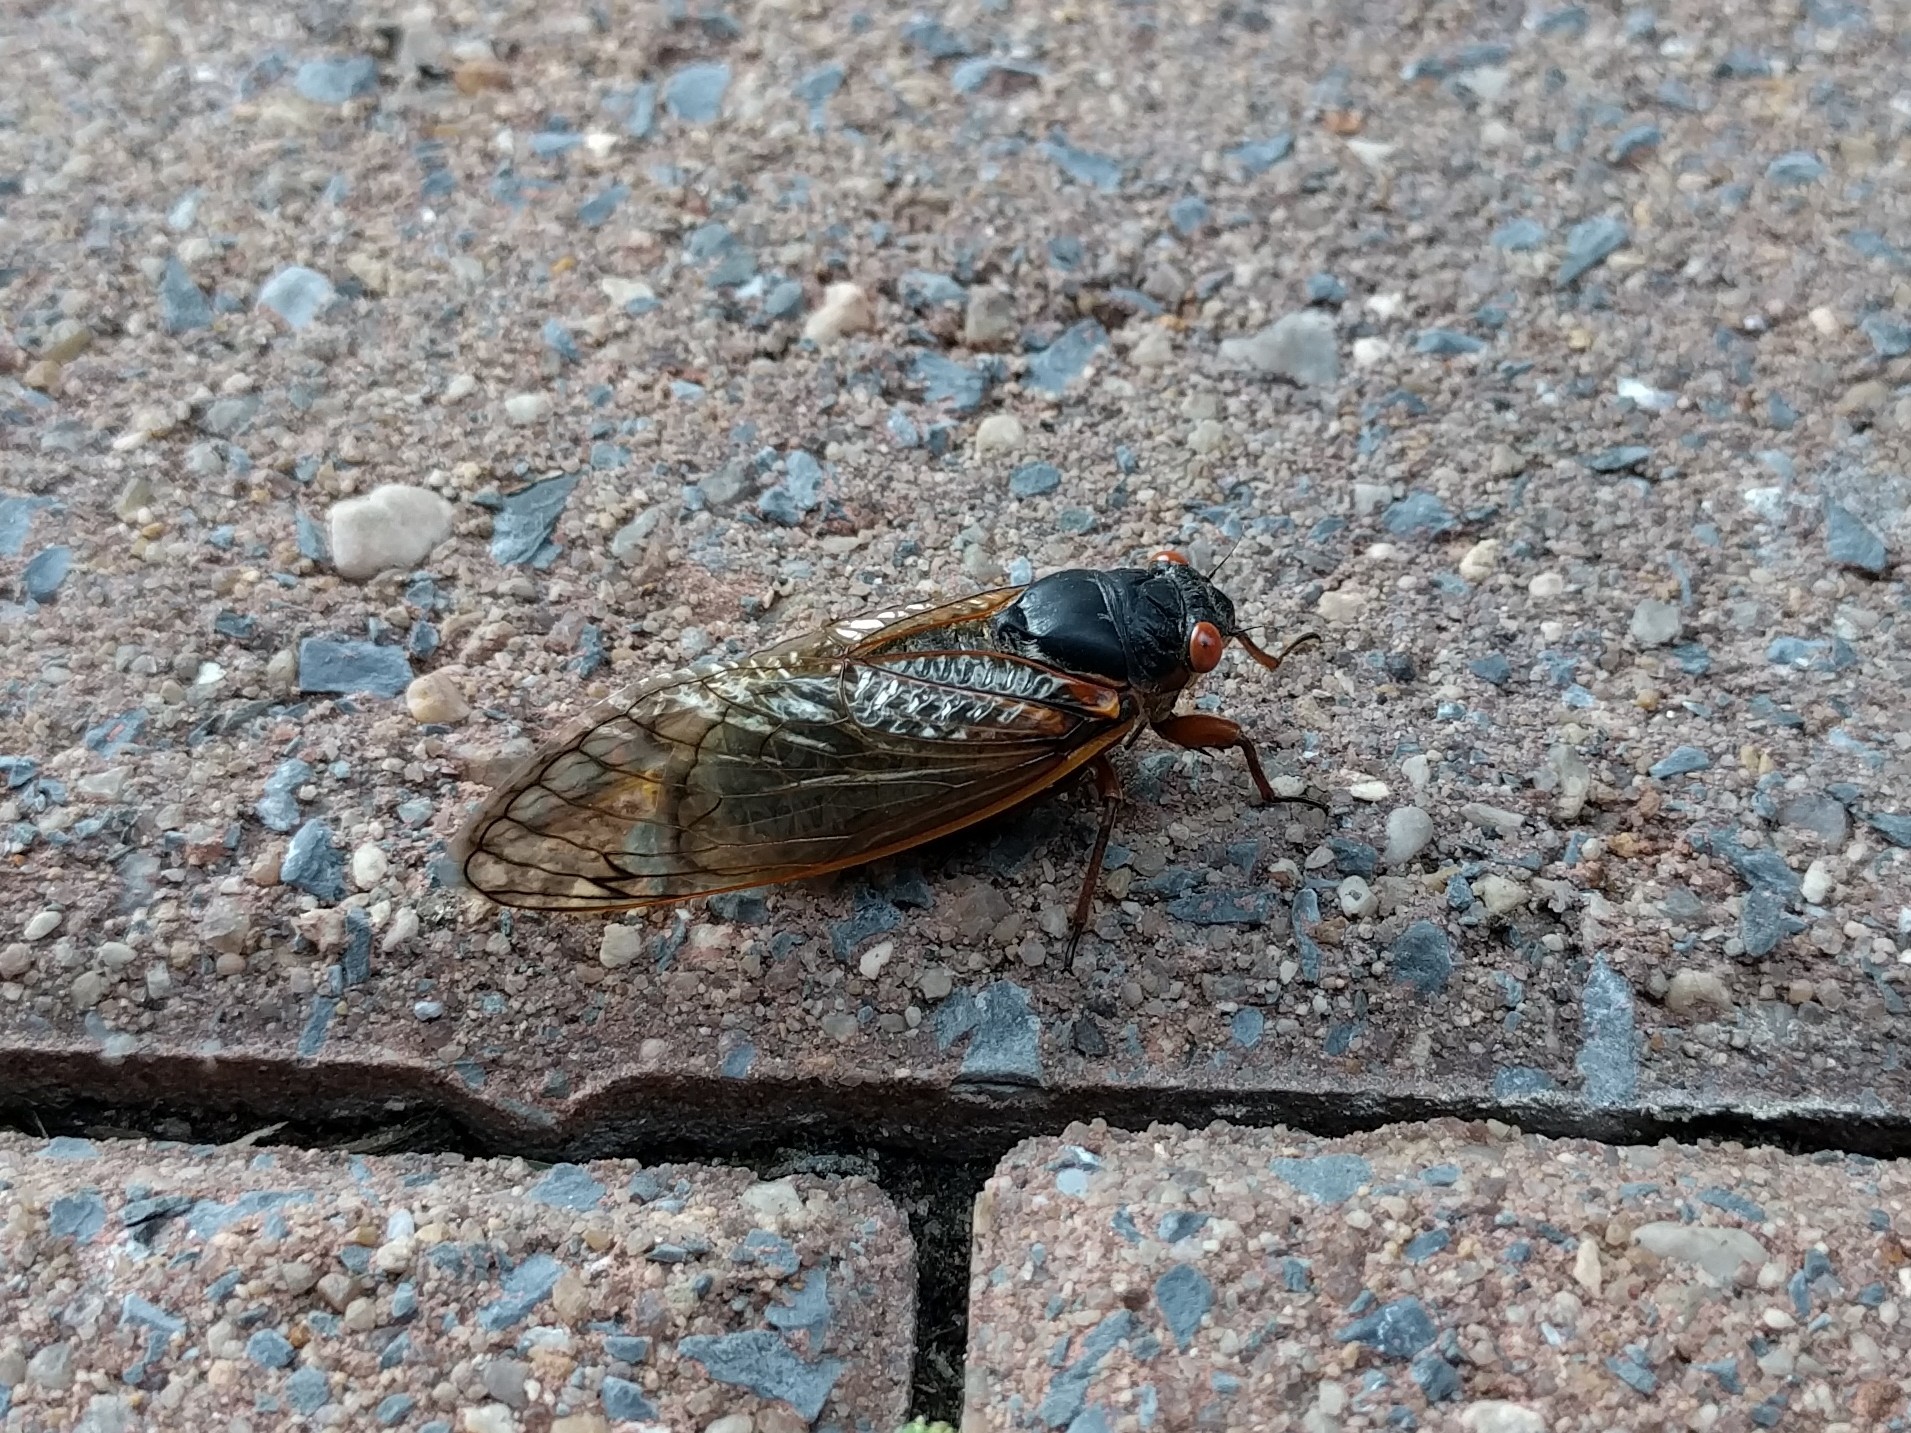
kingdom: Animalia
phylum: Arthropoda
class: Insecta
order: Hemiptera
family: Cicadidae
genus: Magicicada
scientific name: Magicicada
